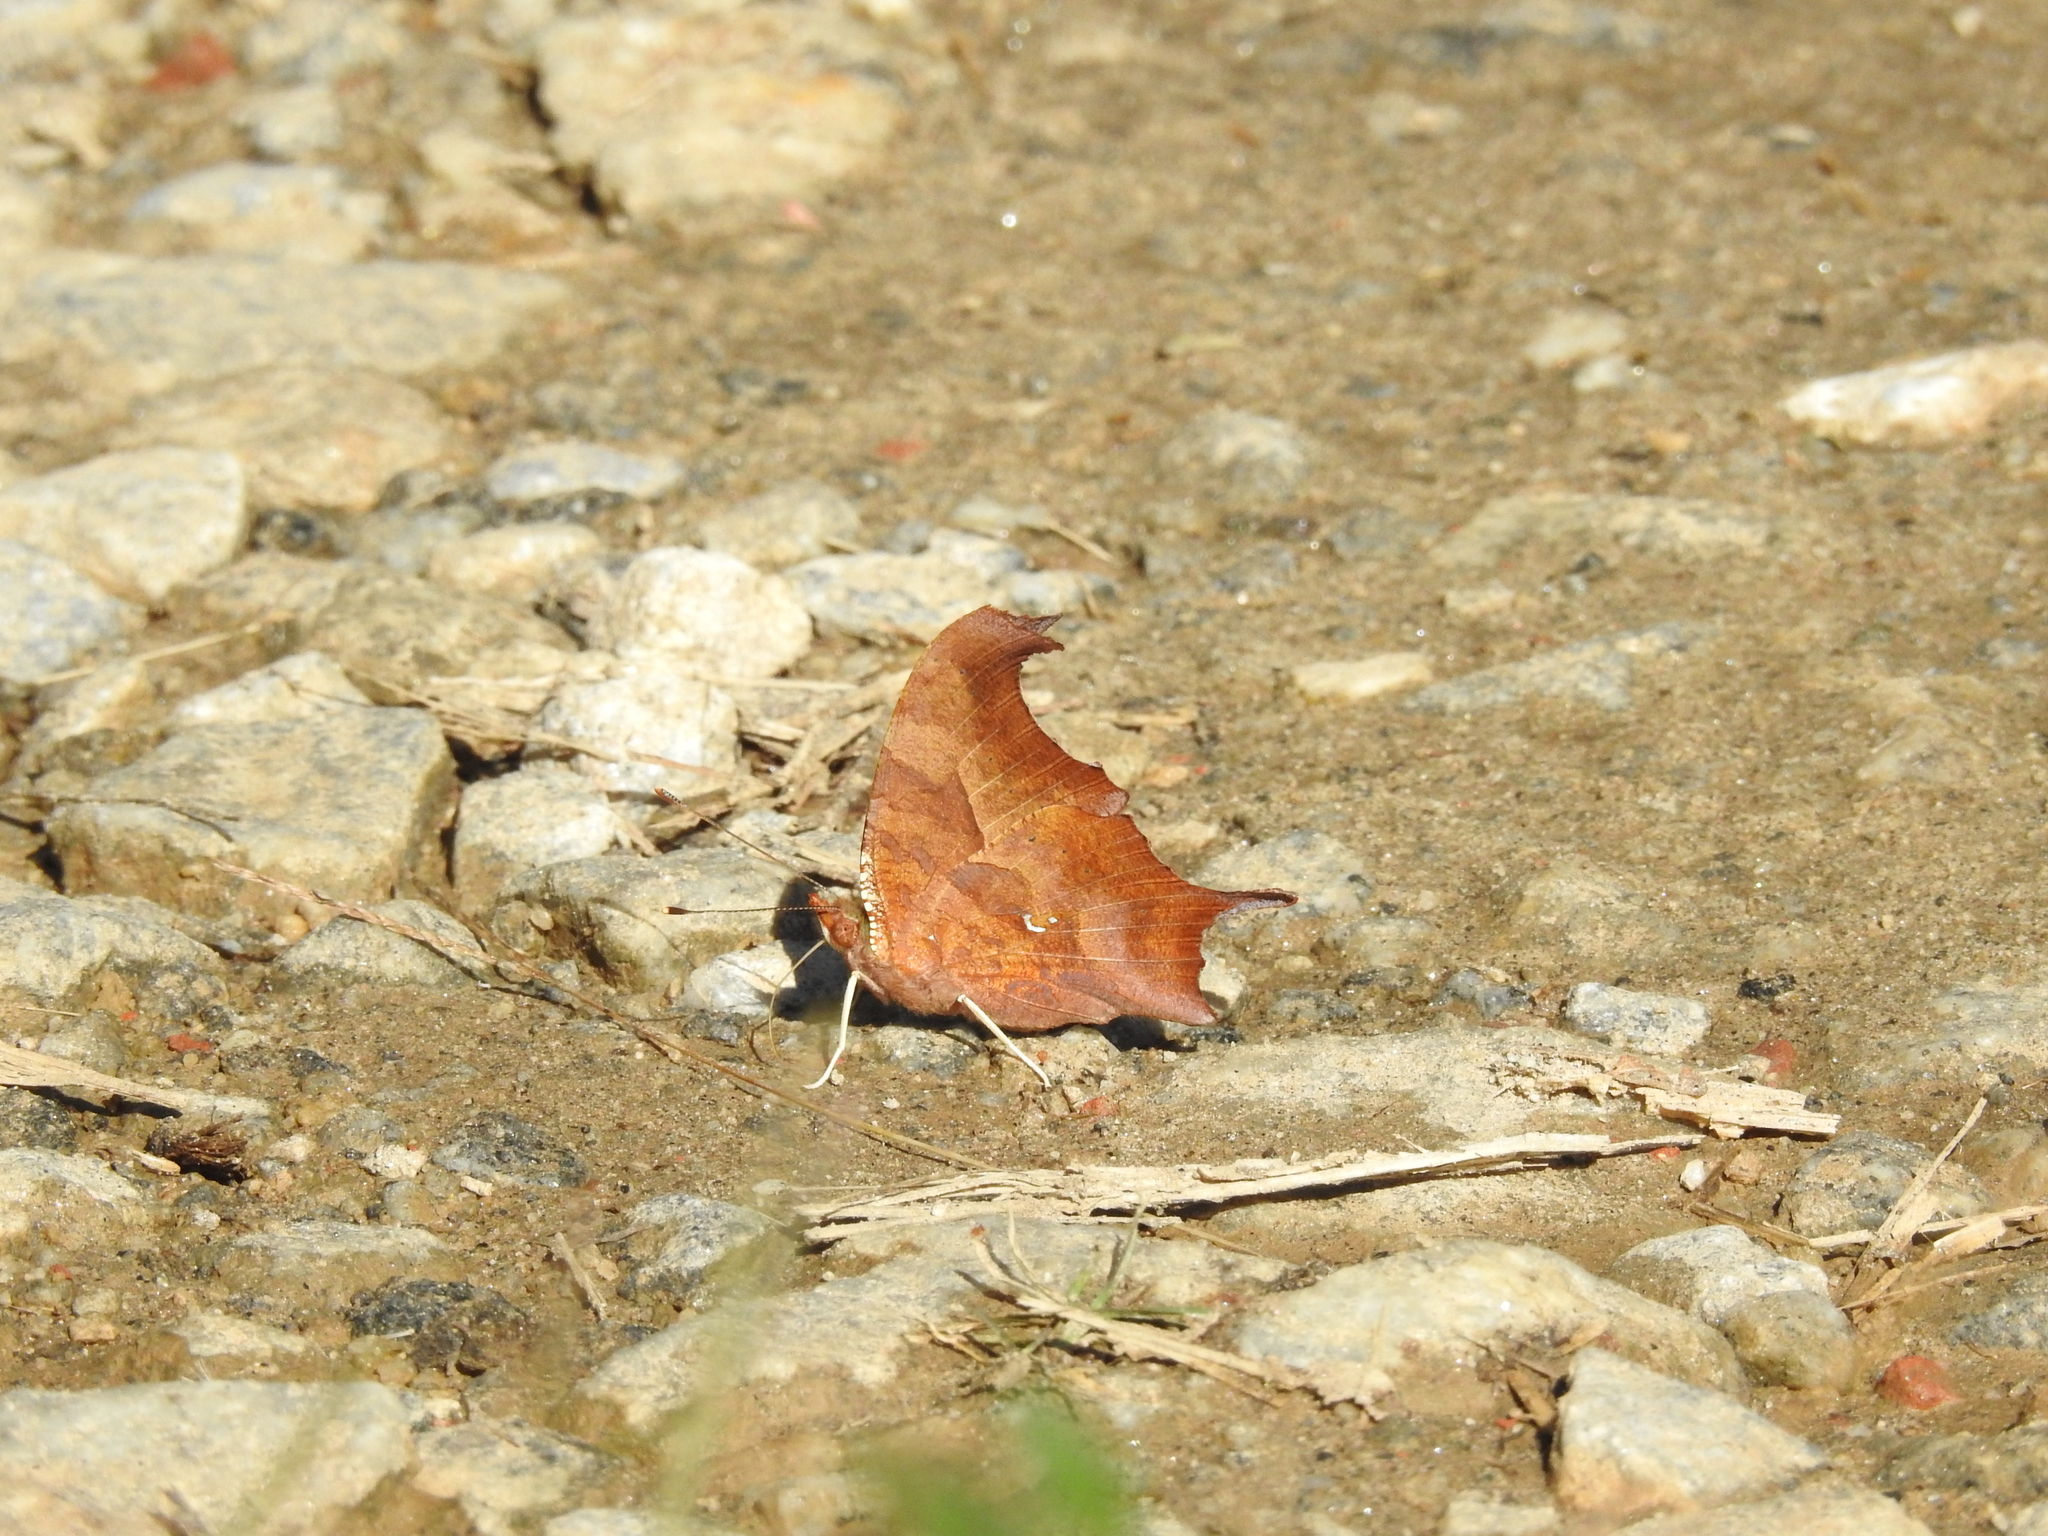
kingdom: Animalia
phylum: Arthropoda
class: Insecta
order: Lepidoptera
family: Nymphalidae
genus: Polygonia
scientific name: Polygonia interrogationis
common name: Question mark
